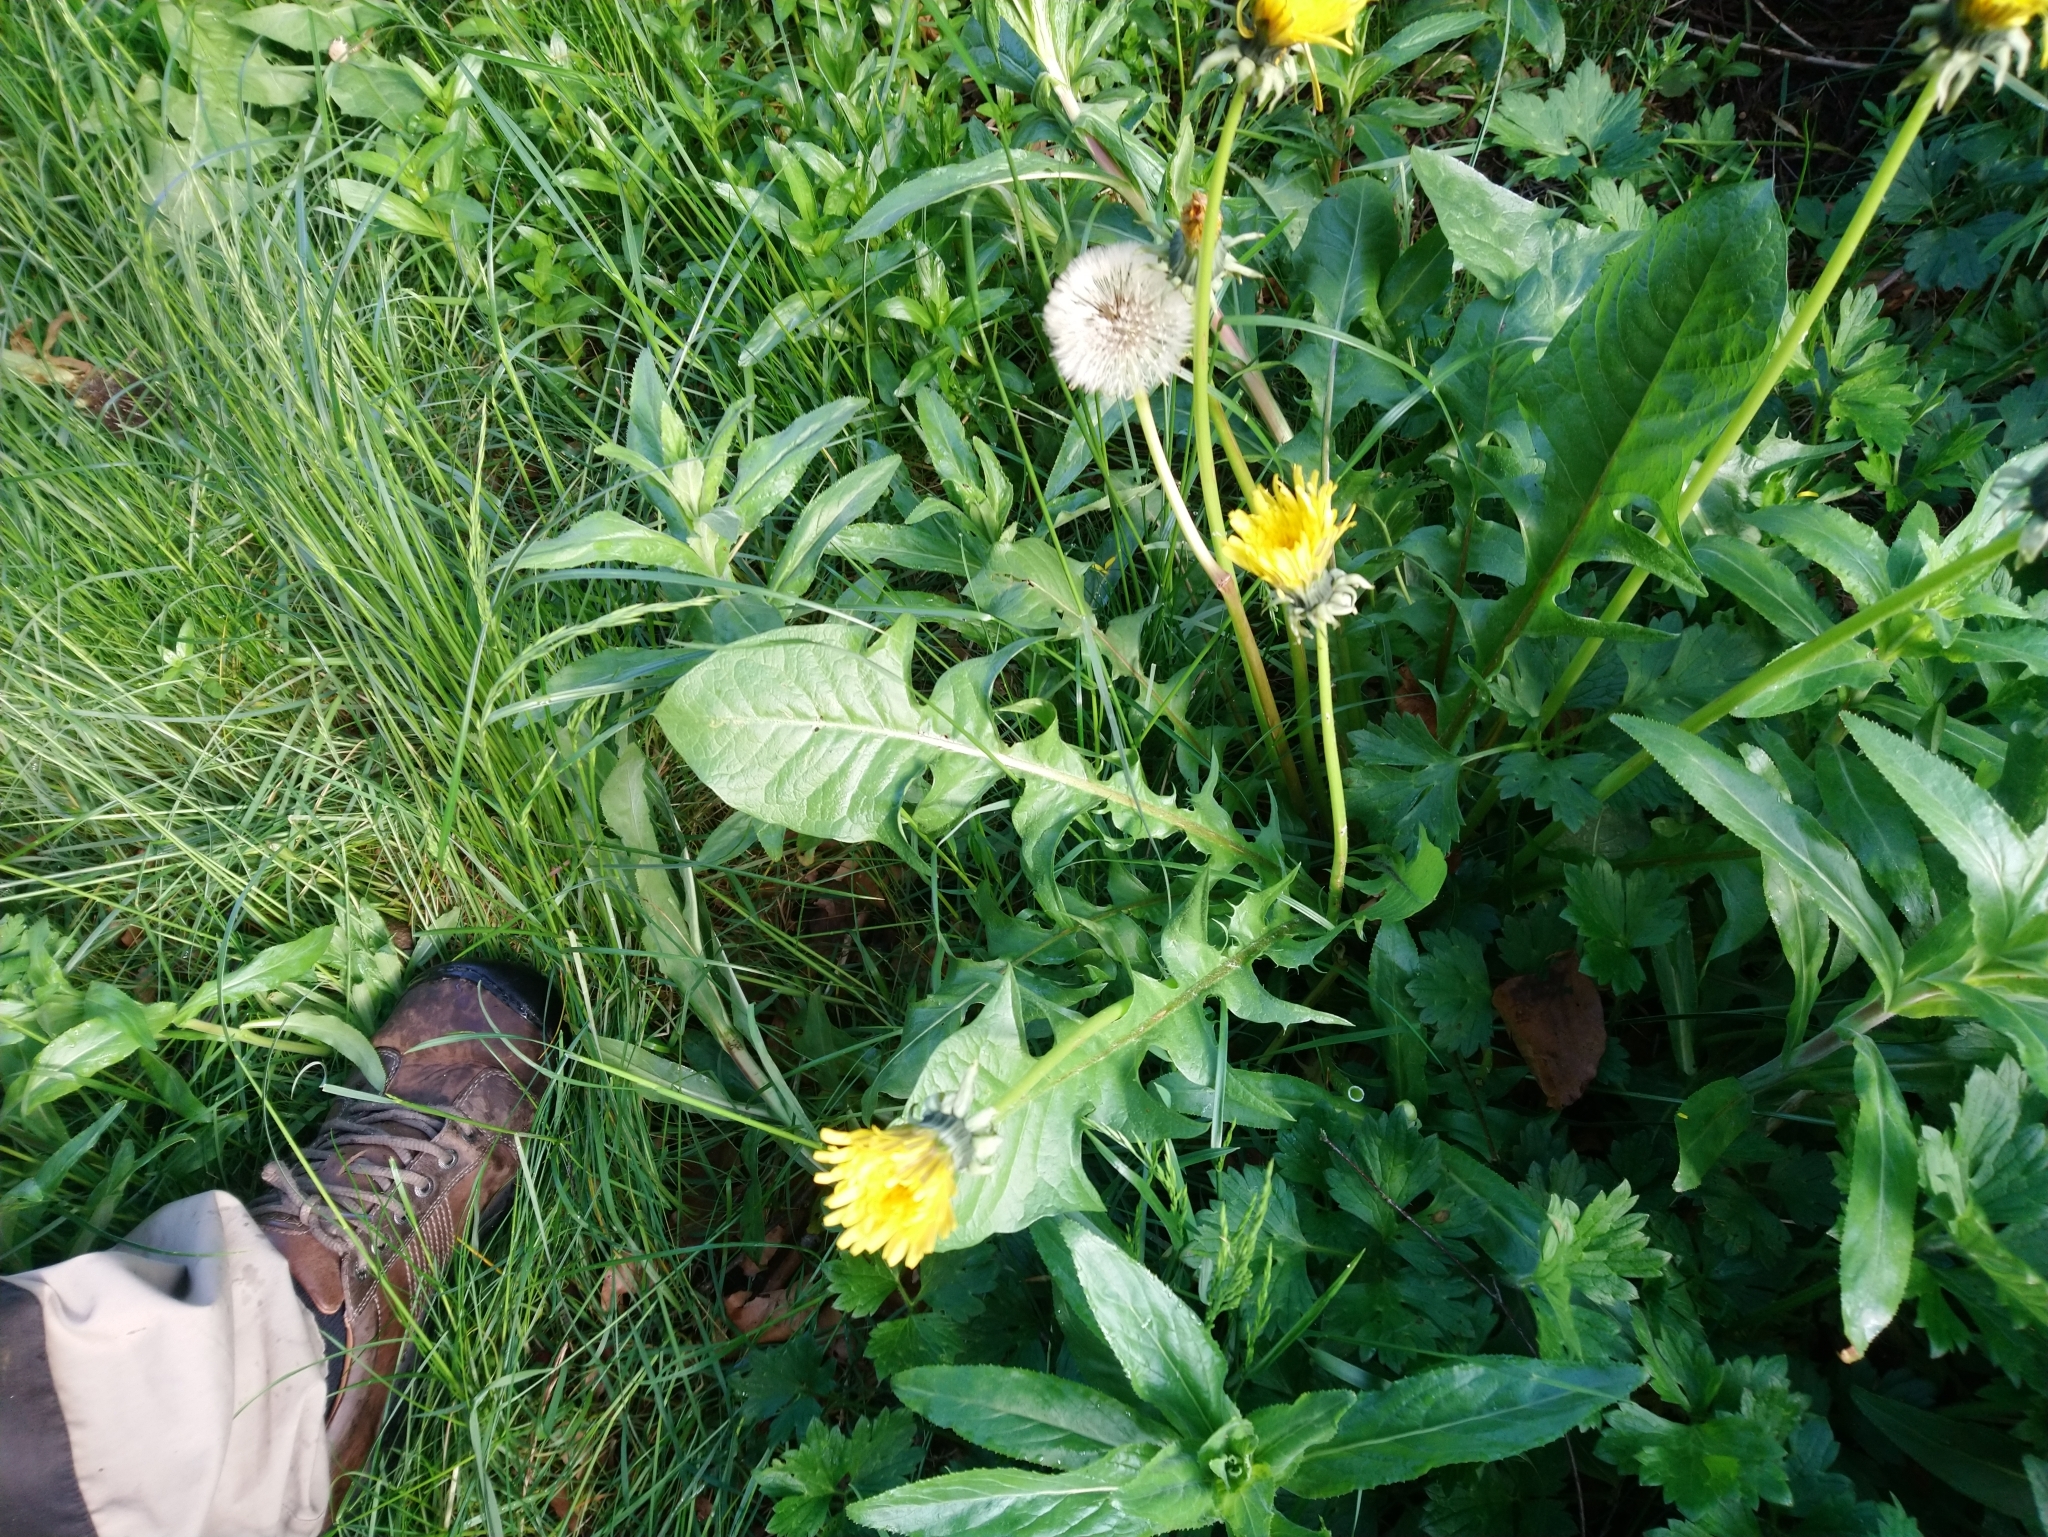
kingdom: Plantae
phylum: Tracheophyta
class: Magnoliopsida
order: Asterales
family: Asteraceae
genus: Taraxacum
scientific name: Taraxacum officinale
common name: Common dandelion
